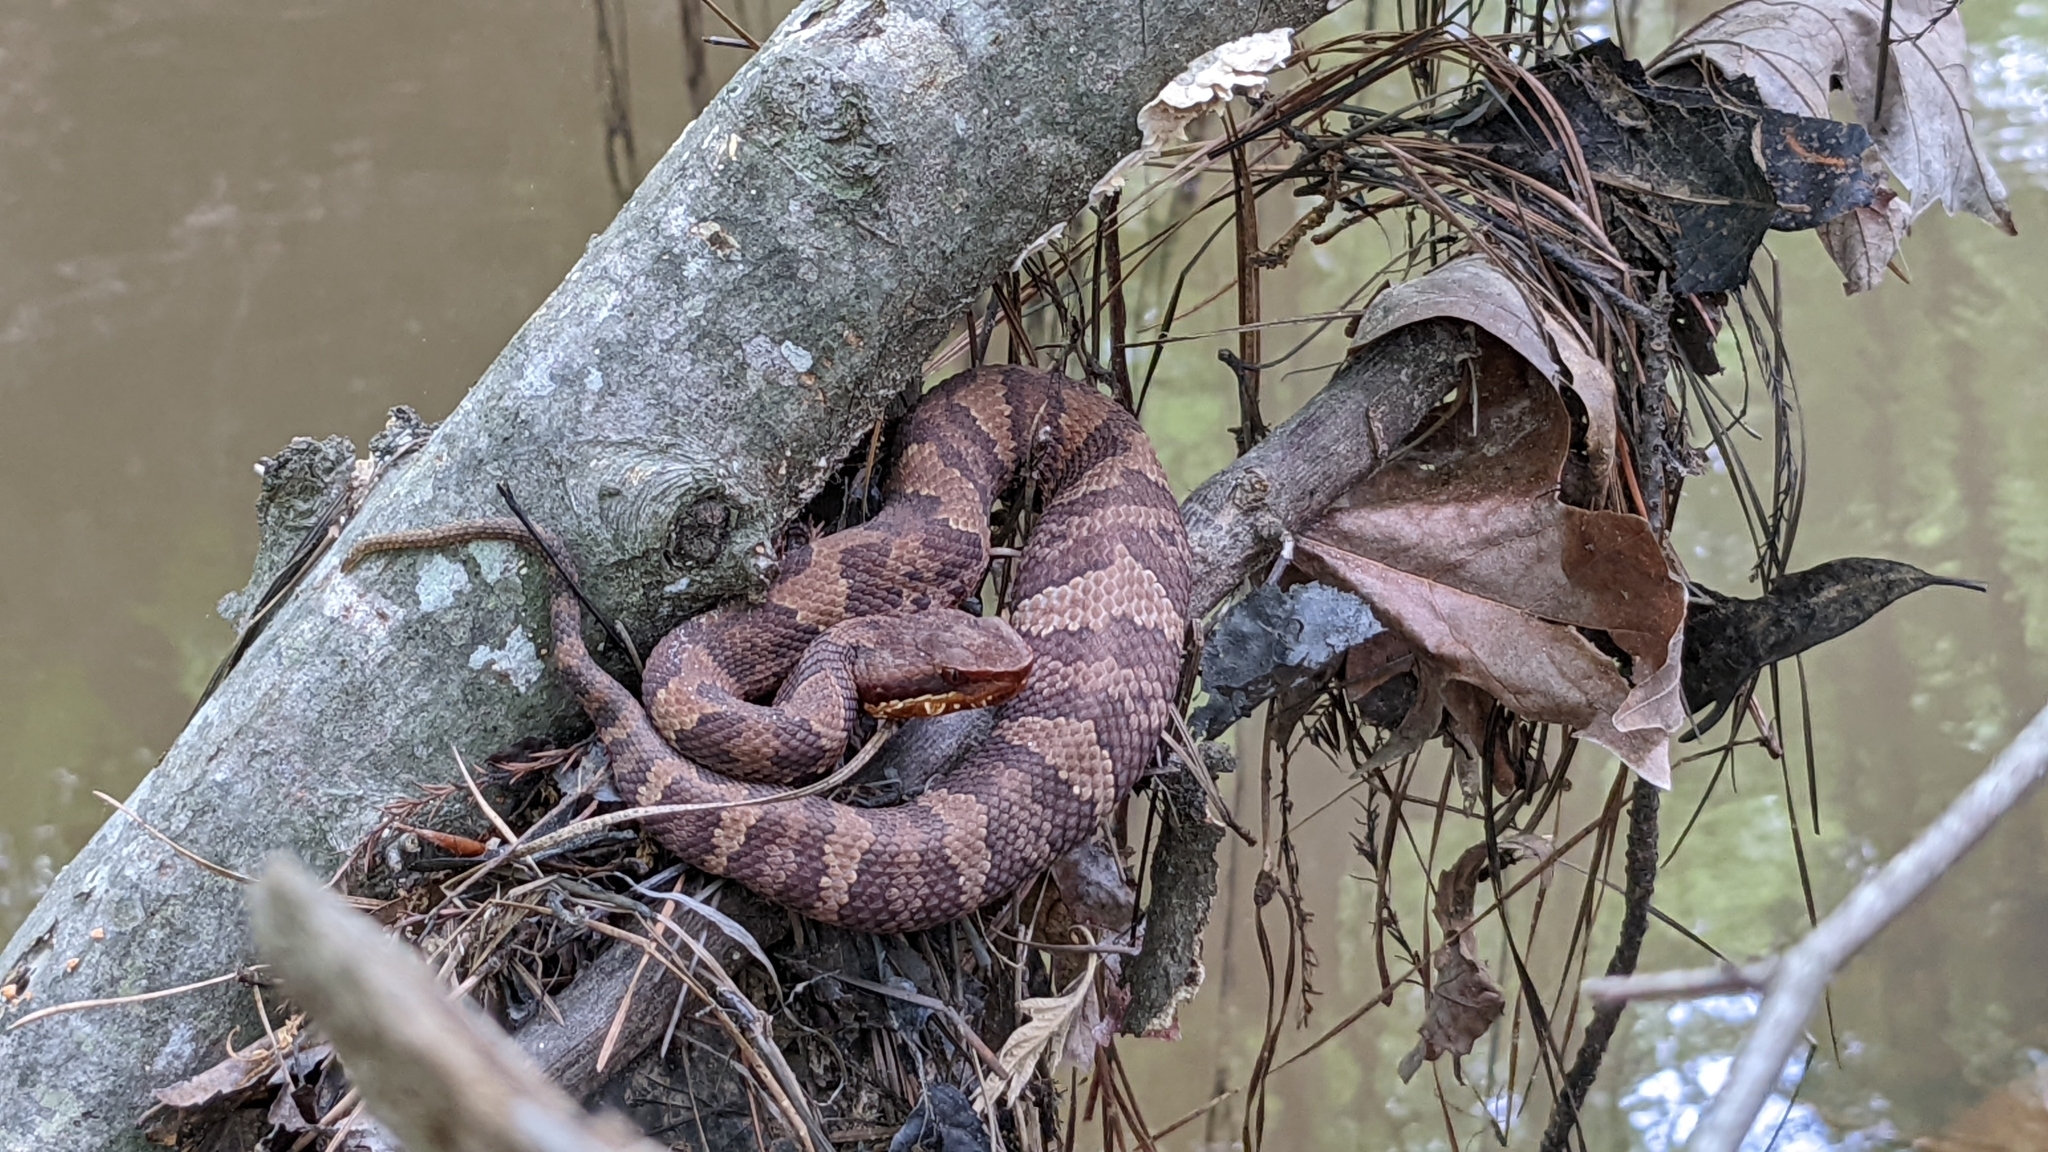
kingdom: Animalia
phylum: Chordata
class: Squamata
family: Viperidae
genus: Agkistrodon
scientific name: Agkistrodon piscivorus
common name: Cottonmouth
